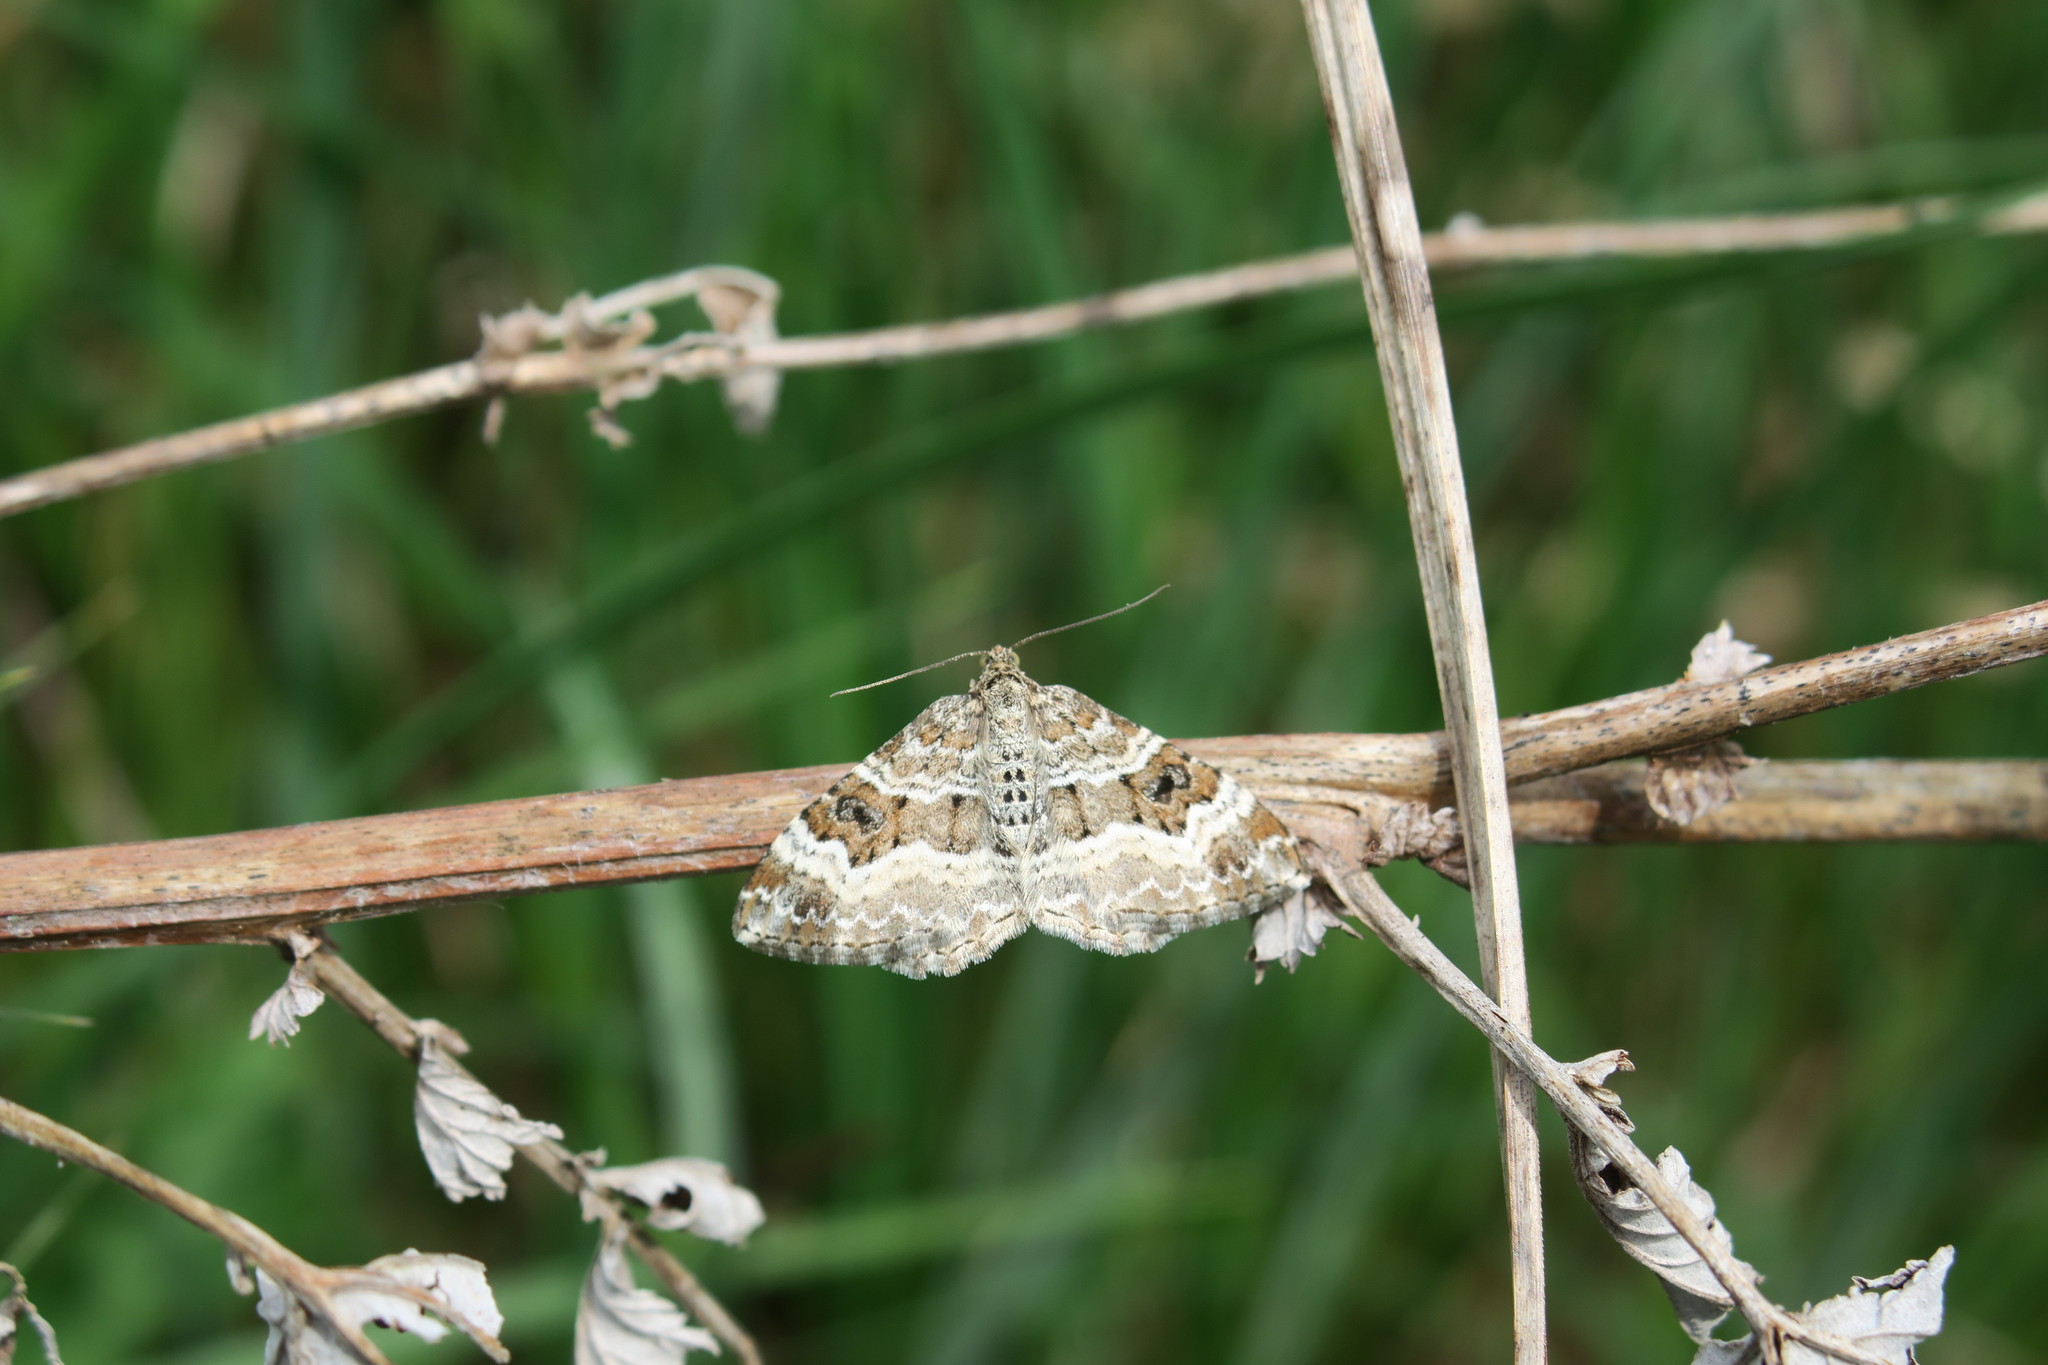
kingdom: Animalia
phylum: Arthropoda
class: Insecta
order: Lepidoptera
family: Geometridae
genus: Epirrhoe
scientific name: Epirrhoe alternata
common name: Common carpet
